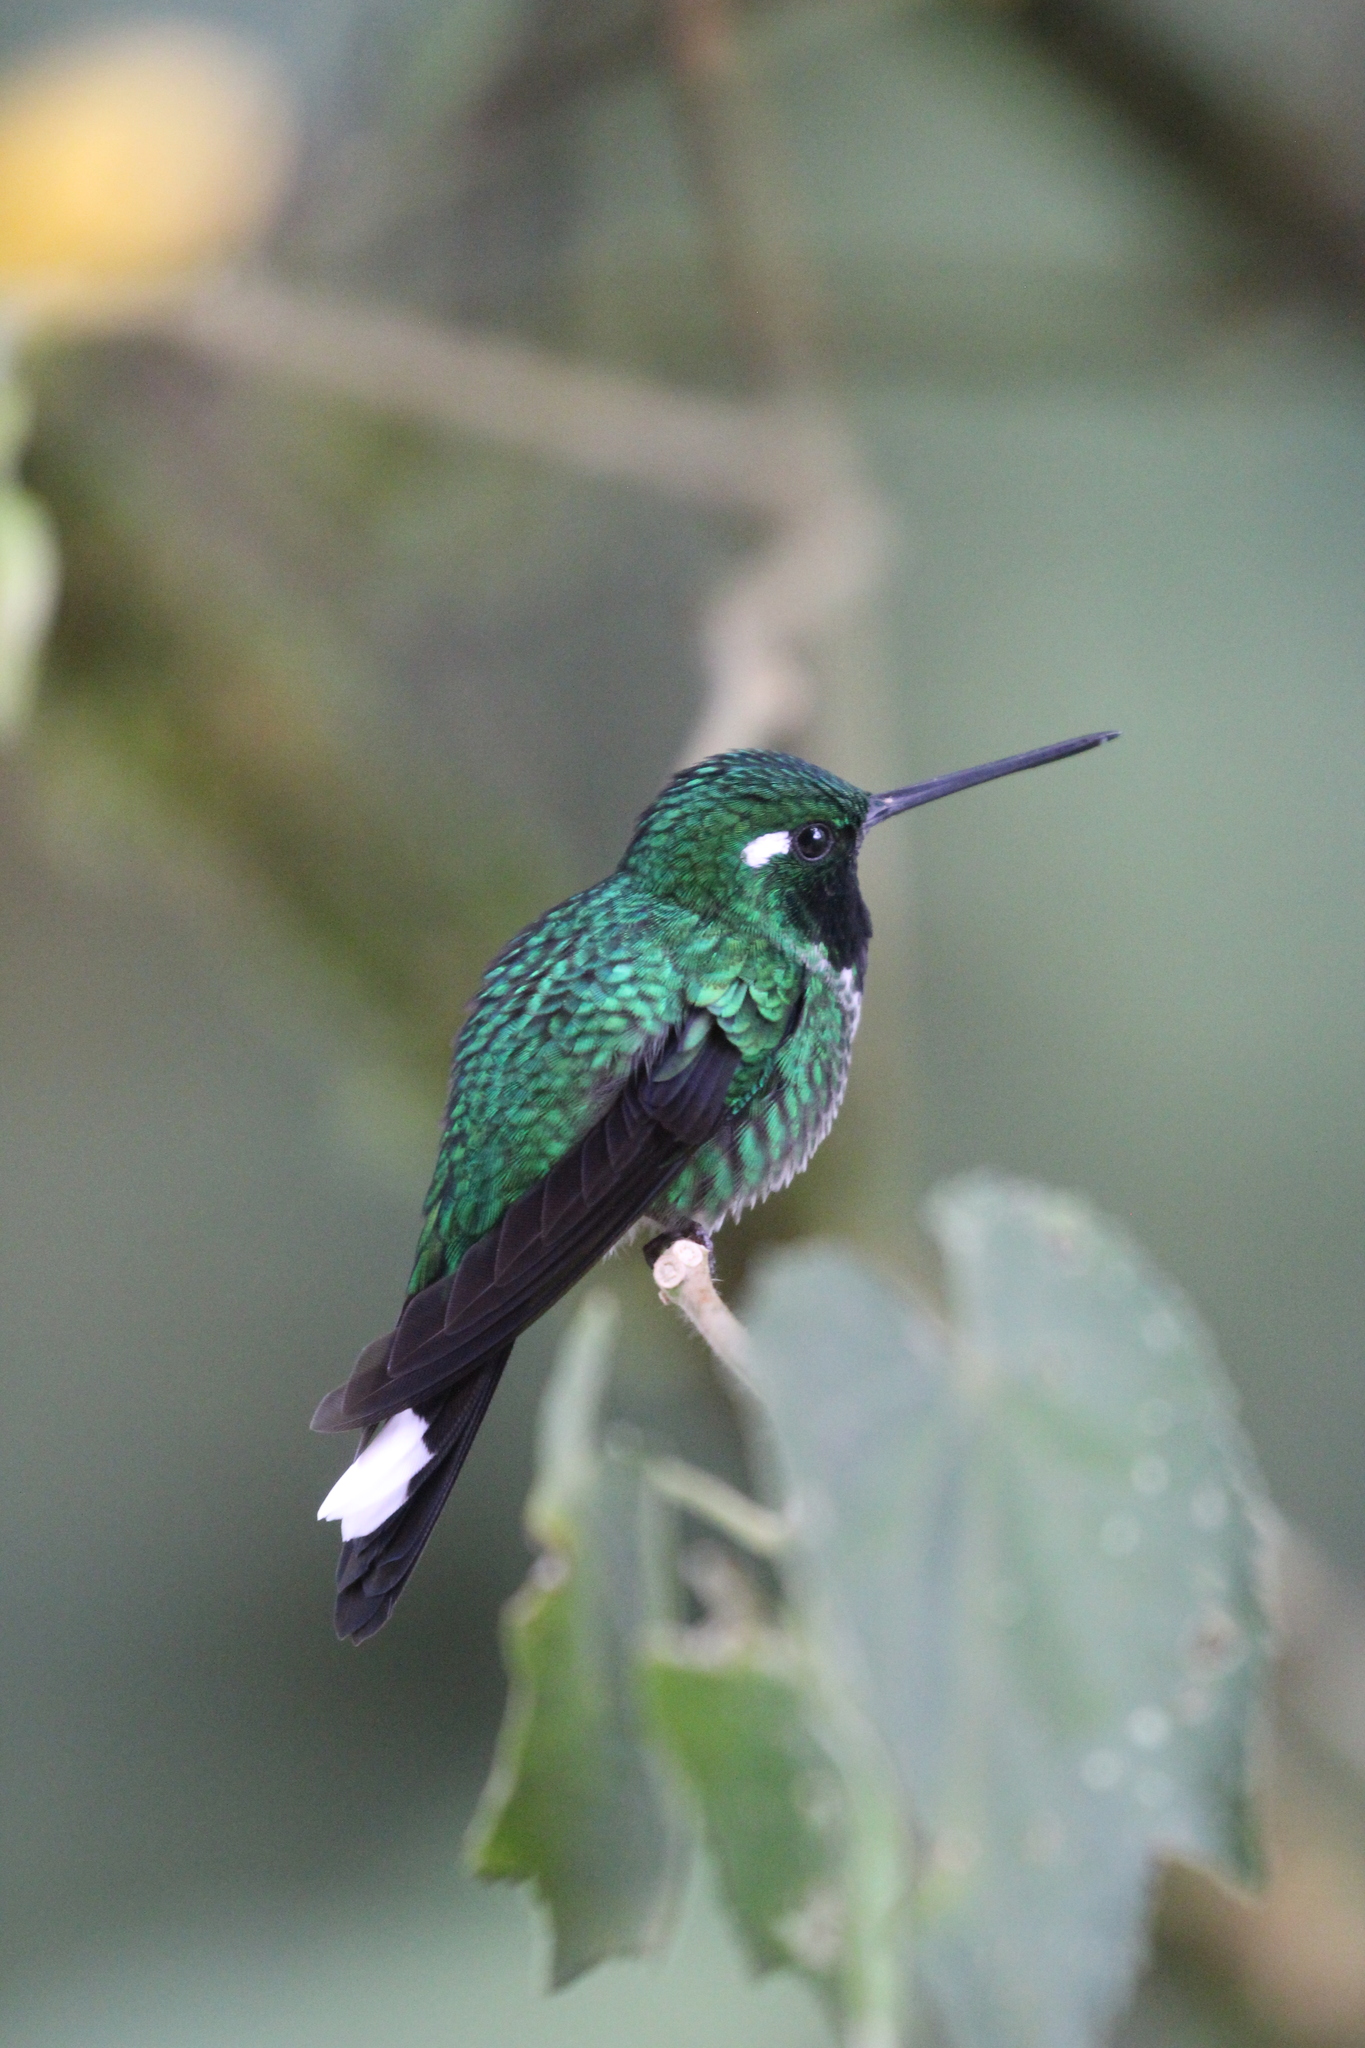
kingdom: Animalia
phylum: Chordata
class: Aves
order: Apodiformes
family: Trochilidae
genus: Urosticte
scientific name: Urosticte benjamini
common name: Purple-bibbed whitetip
